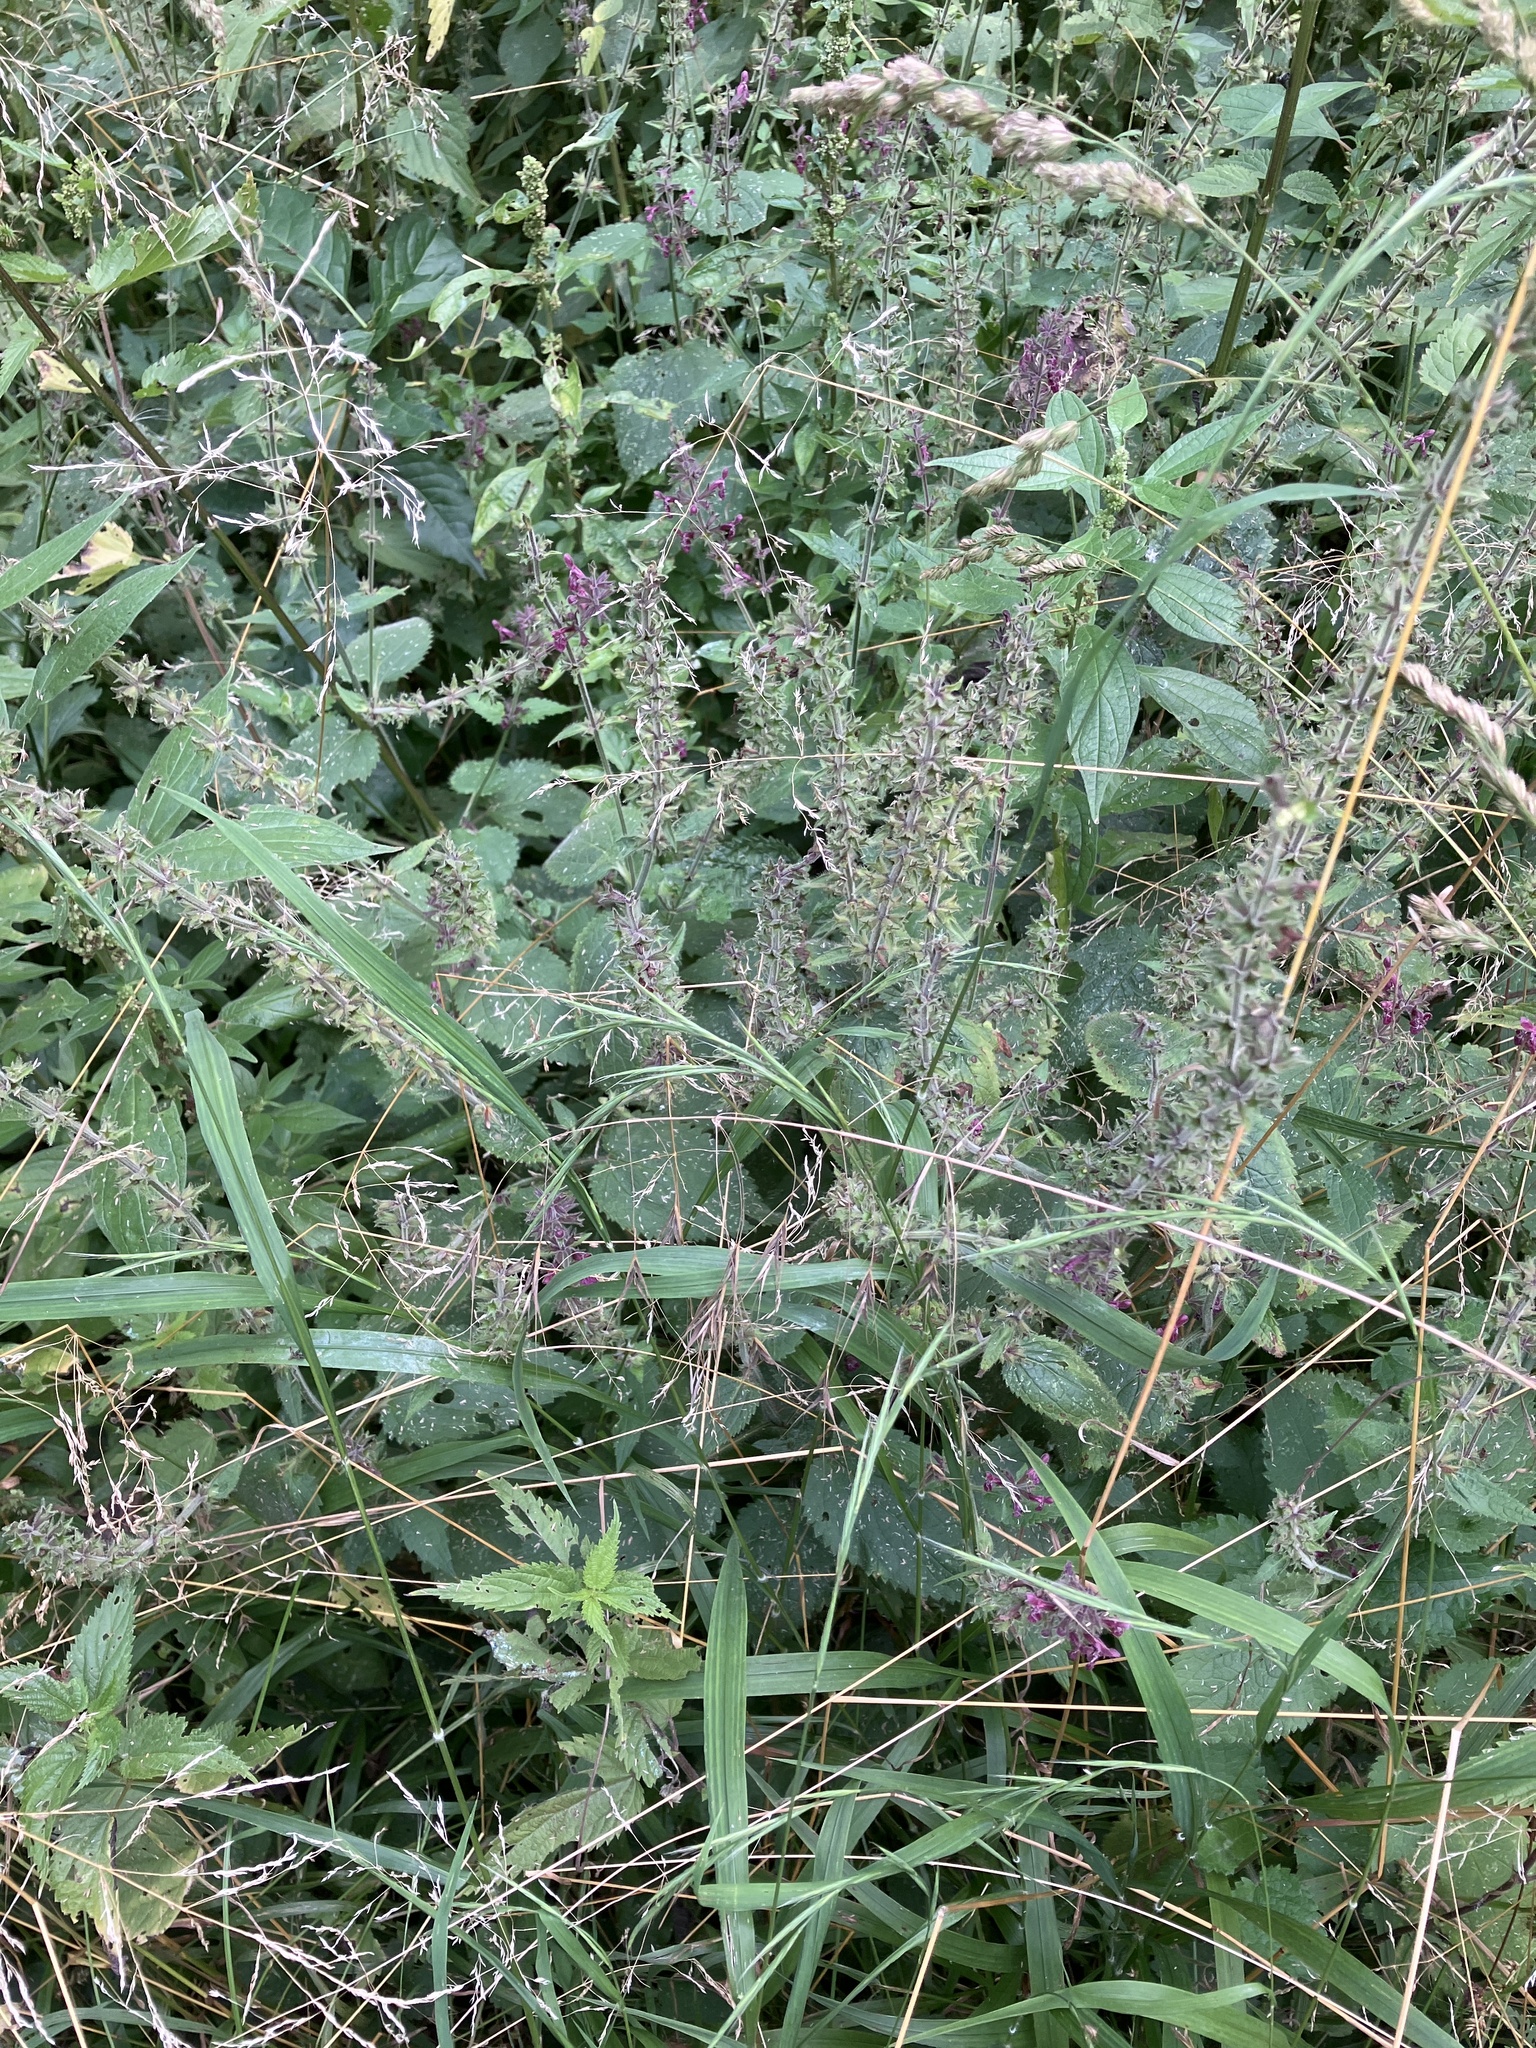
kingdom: Plantae
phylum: Tracheophyta
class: Magnoliopsida
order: Lamiales
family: Lamiaceae
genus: Stachys
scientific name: Stachys sylvatica
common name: Hedge woundwort
